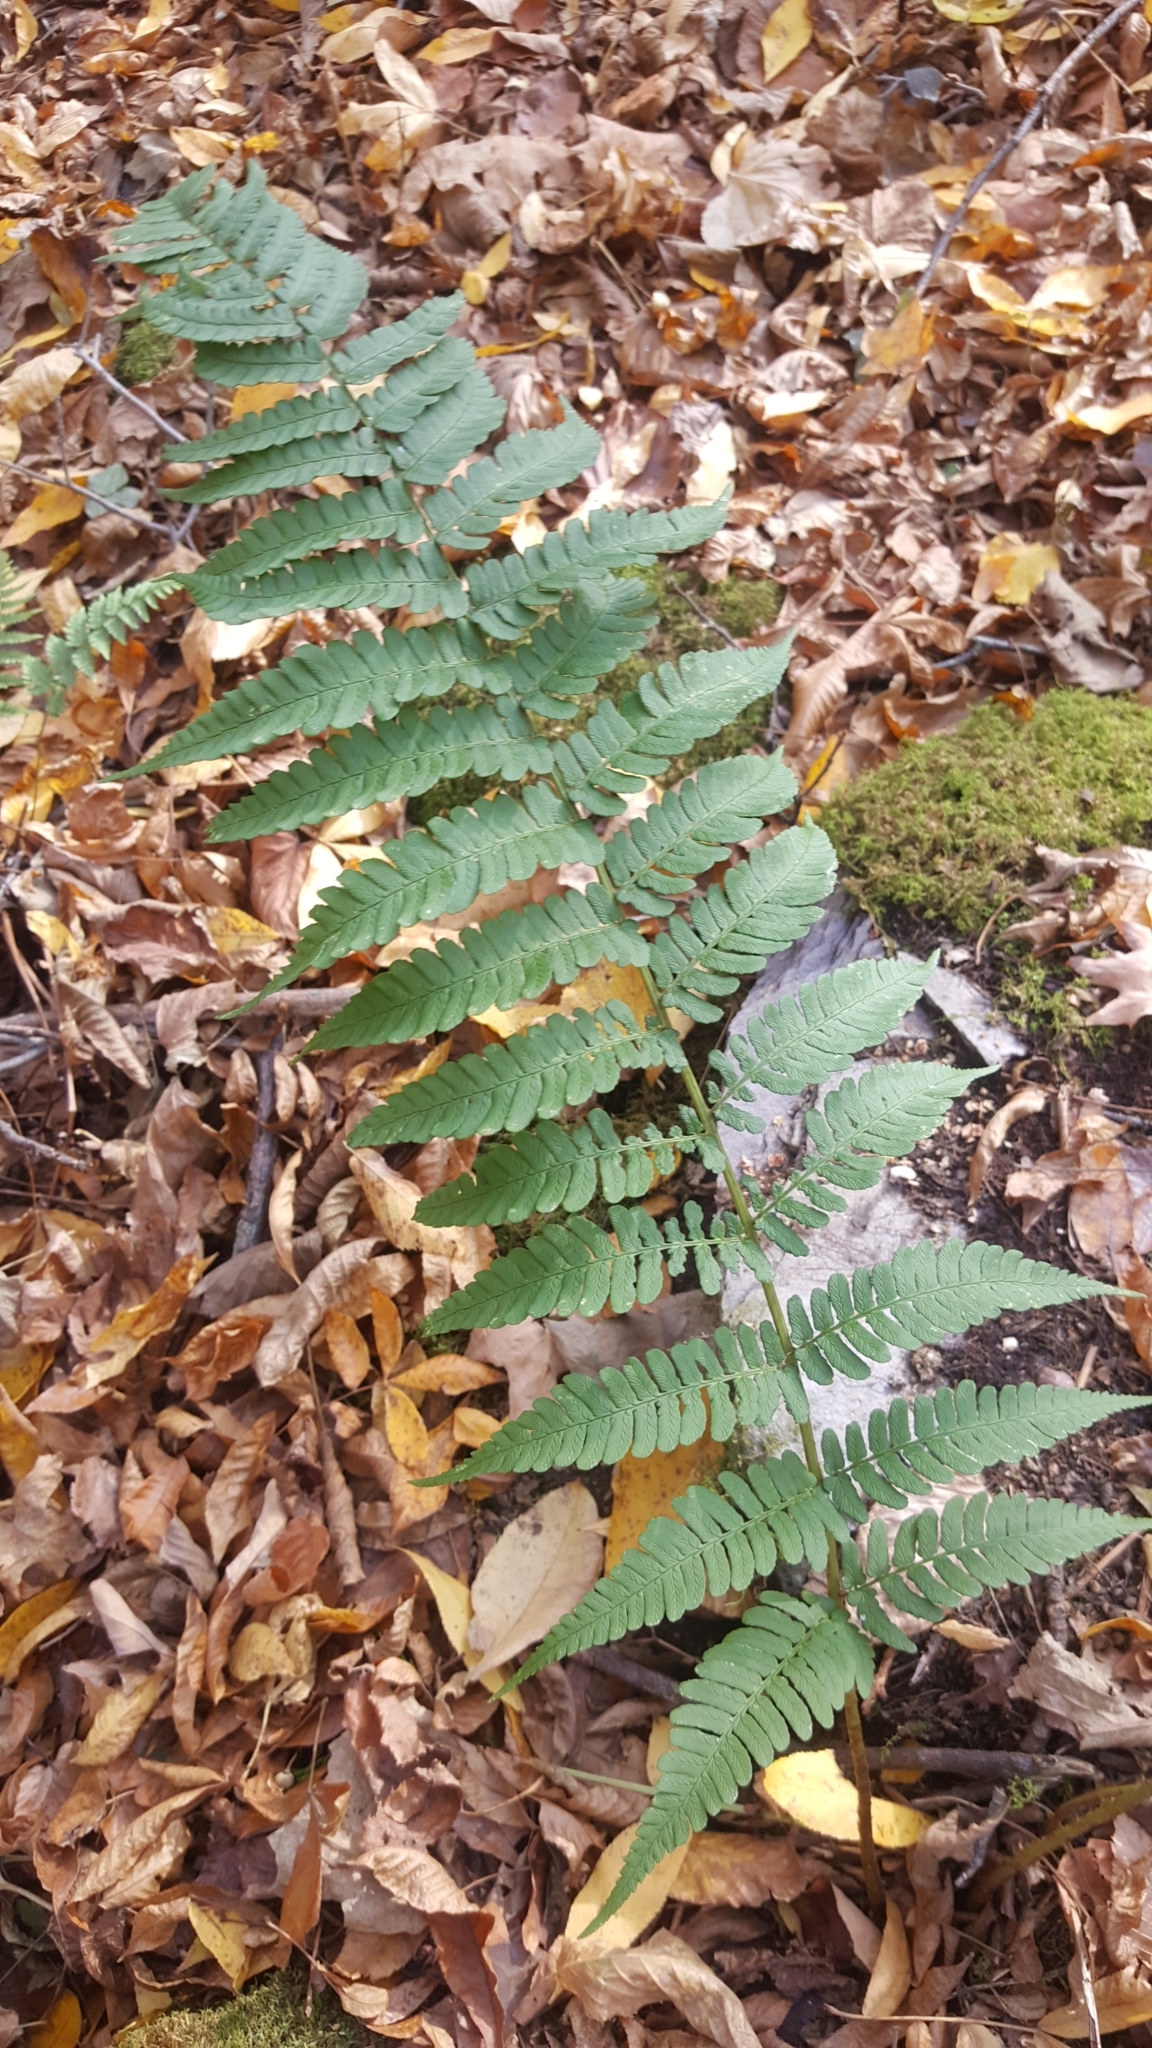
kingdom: Plantae
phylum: Tracheophyta
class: Polypodiopsida
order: Polypodiales
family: Dryopteridaceae
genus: Dryopteris
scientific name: Dryopteris marginalis
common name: Marginal wood fern
